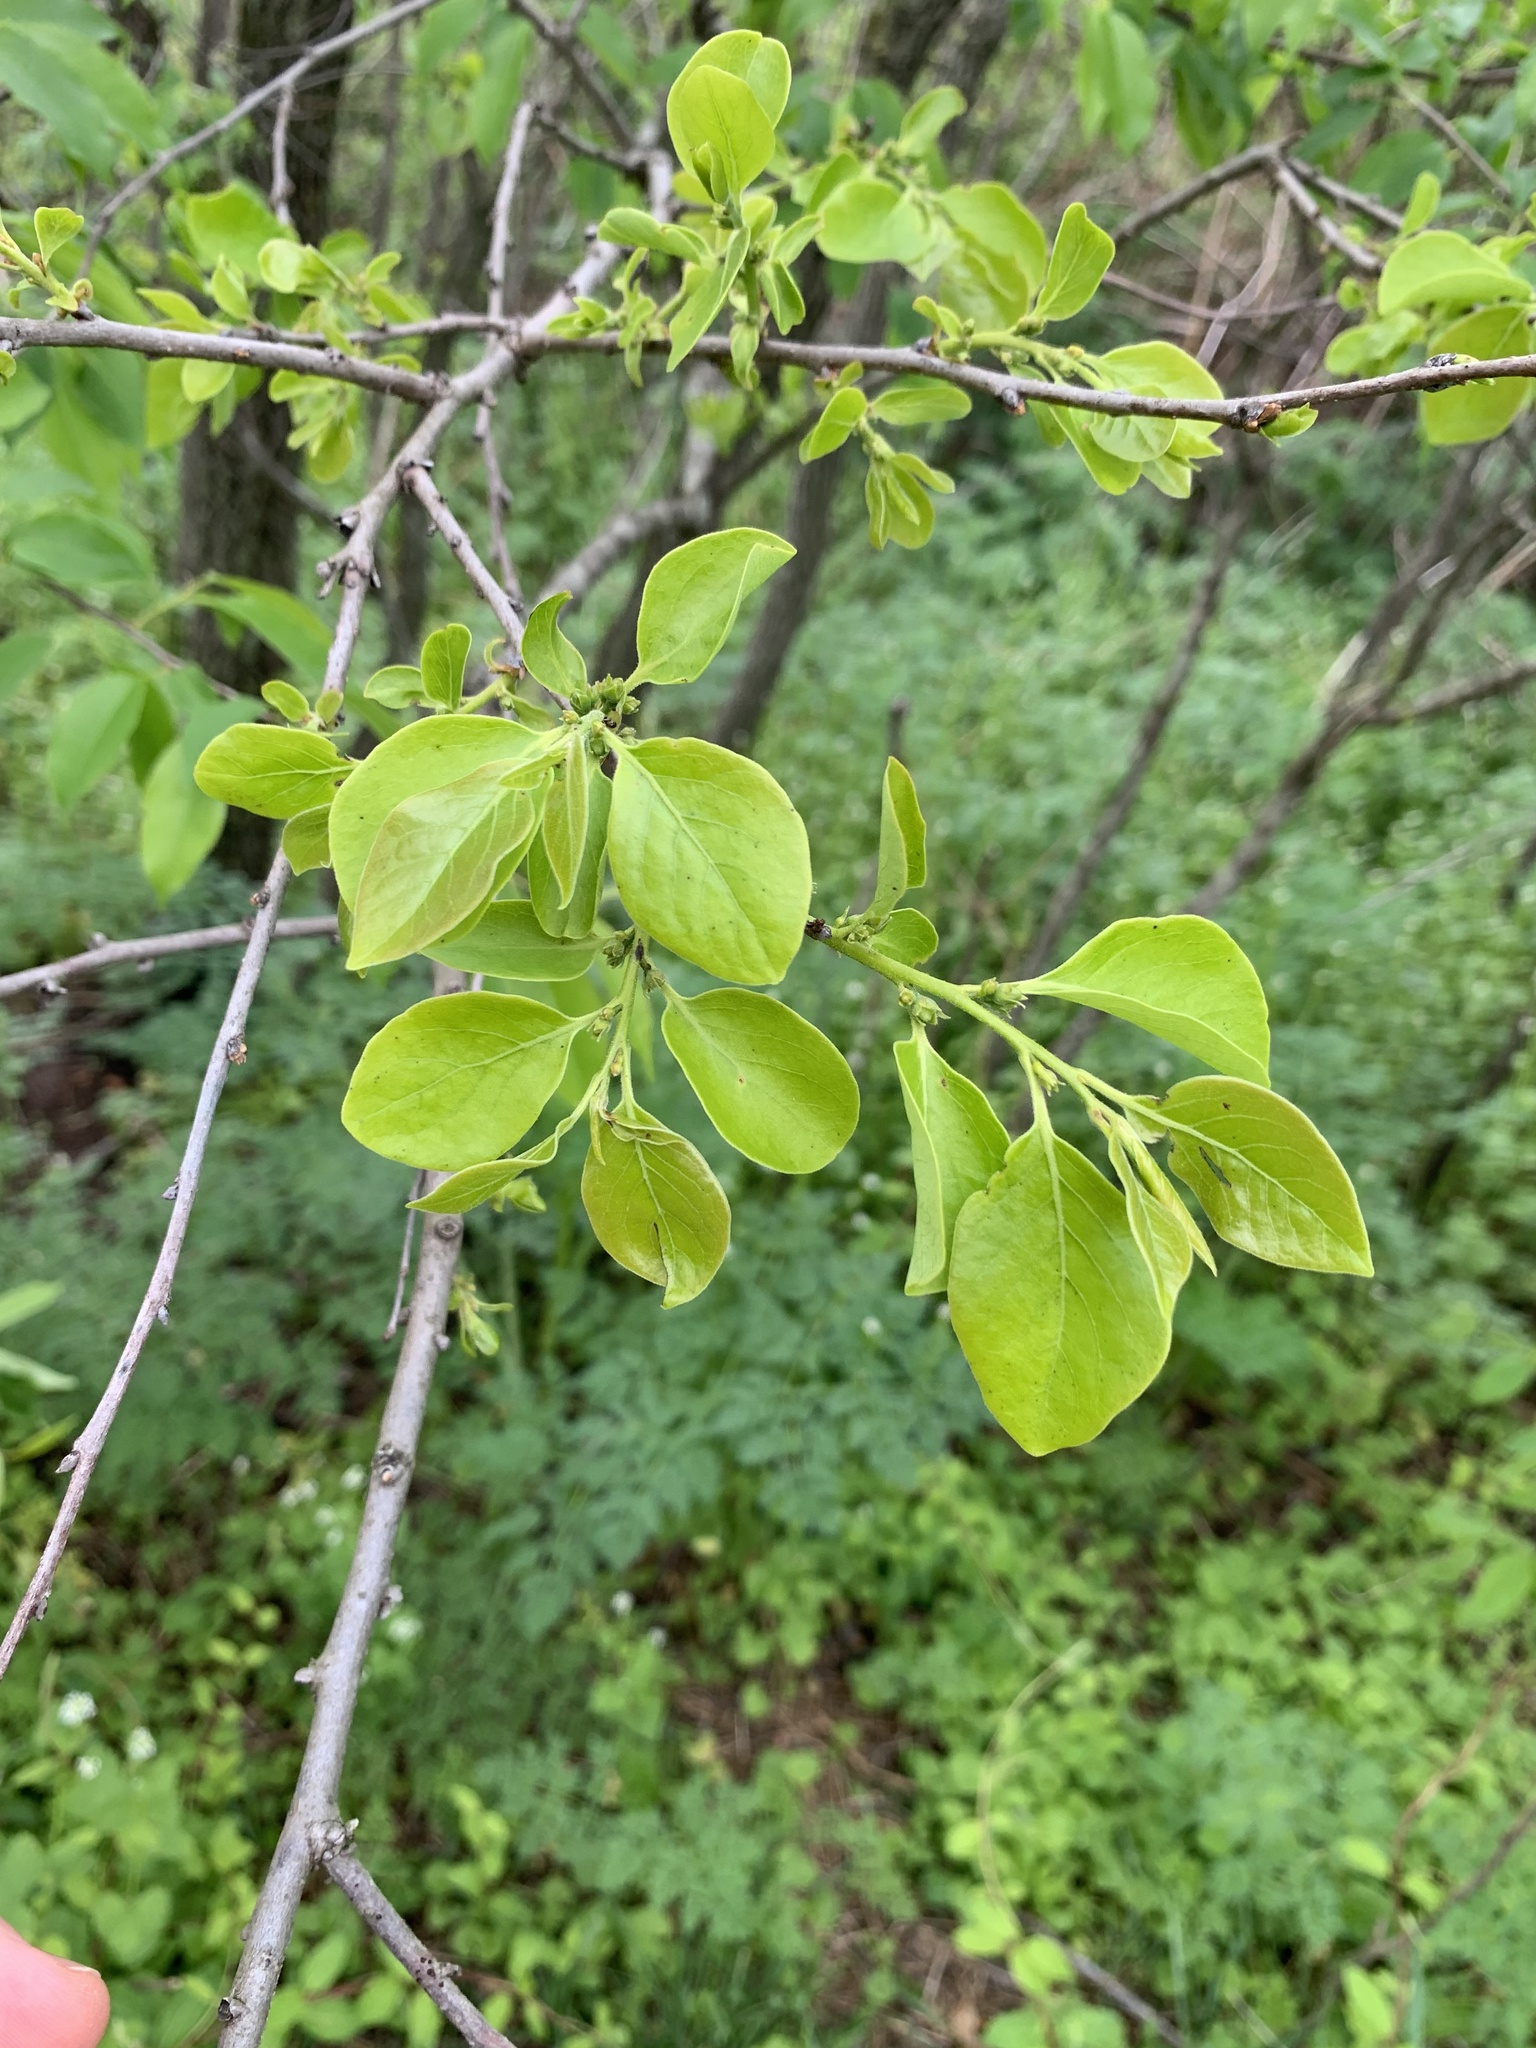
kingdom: Plantae
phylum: Tracheophyta
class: Magnoliopsida
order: Ericales
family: Ebenaceae
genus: Diospyros
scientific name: Diospyros virginiana
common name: Persimmon
